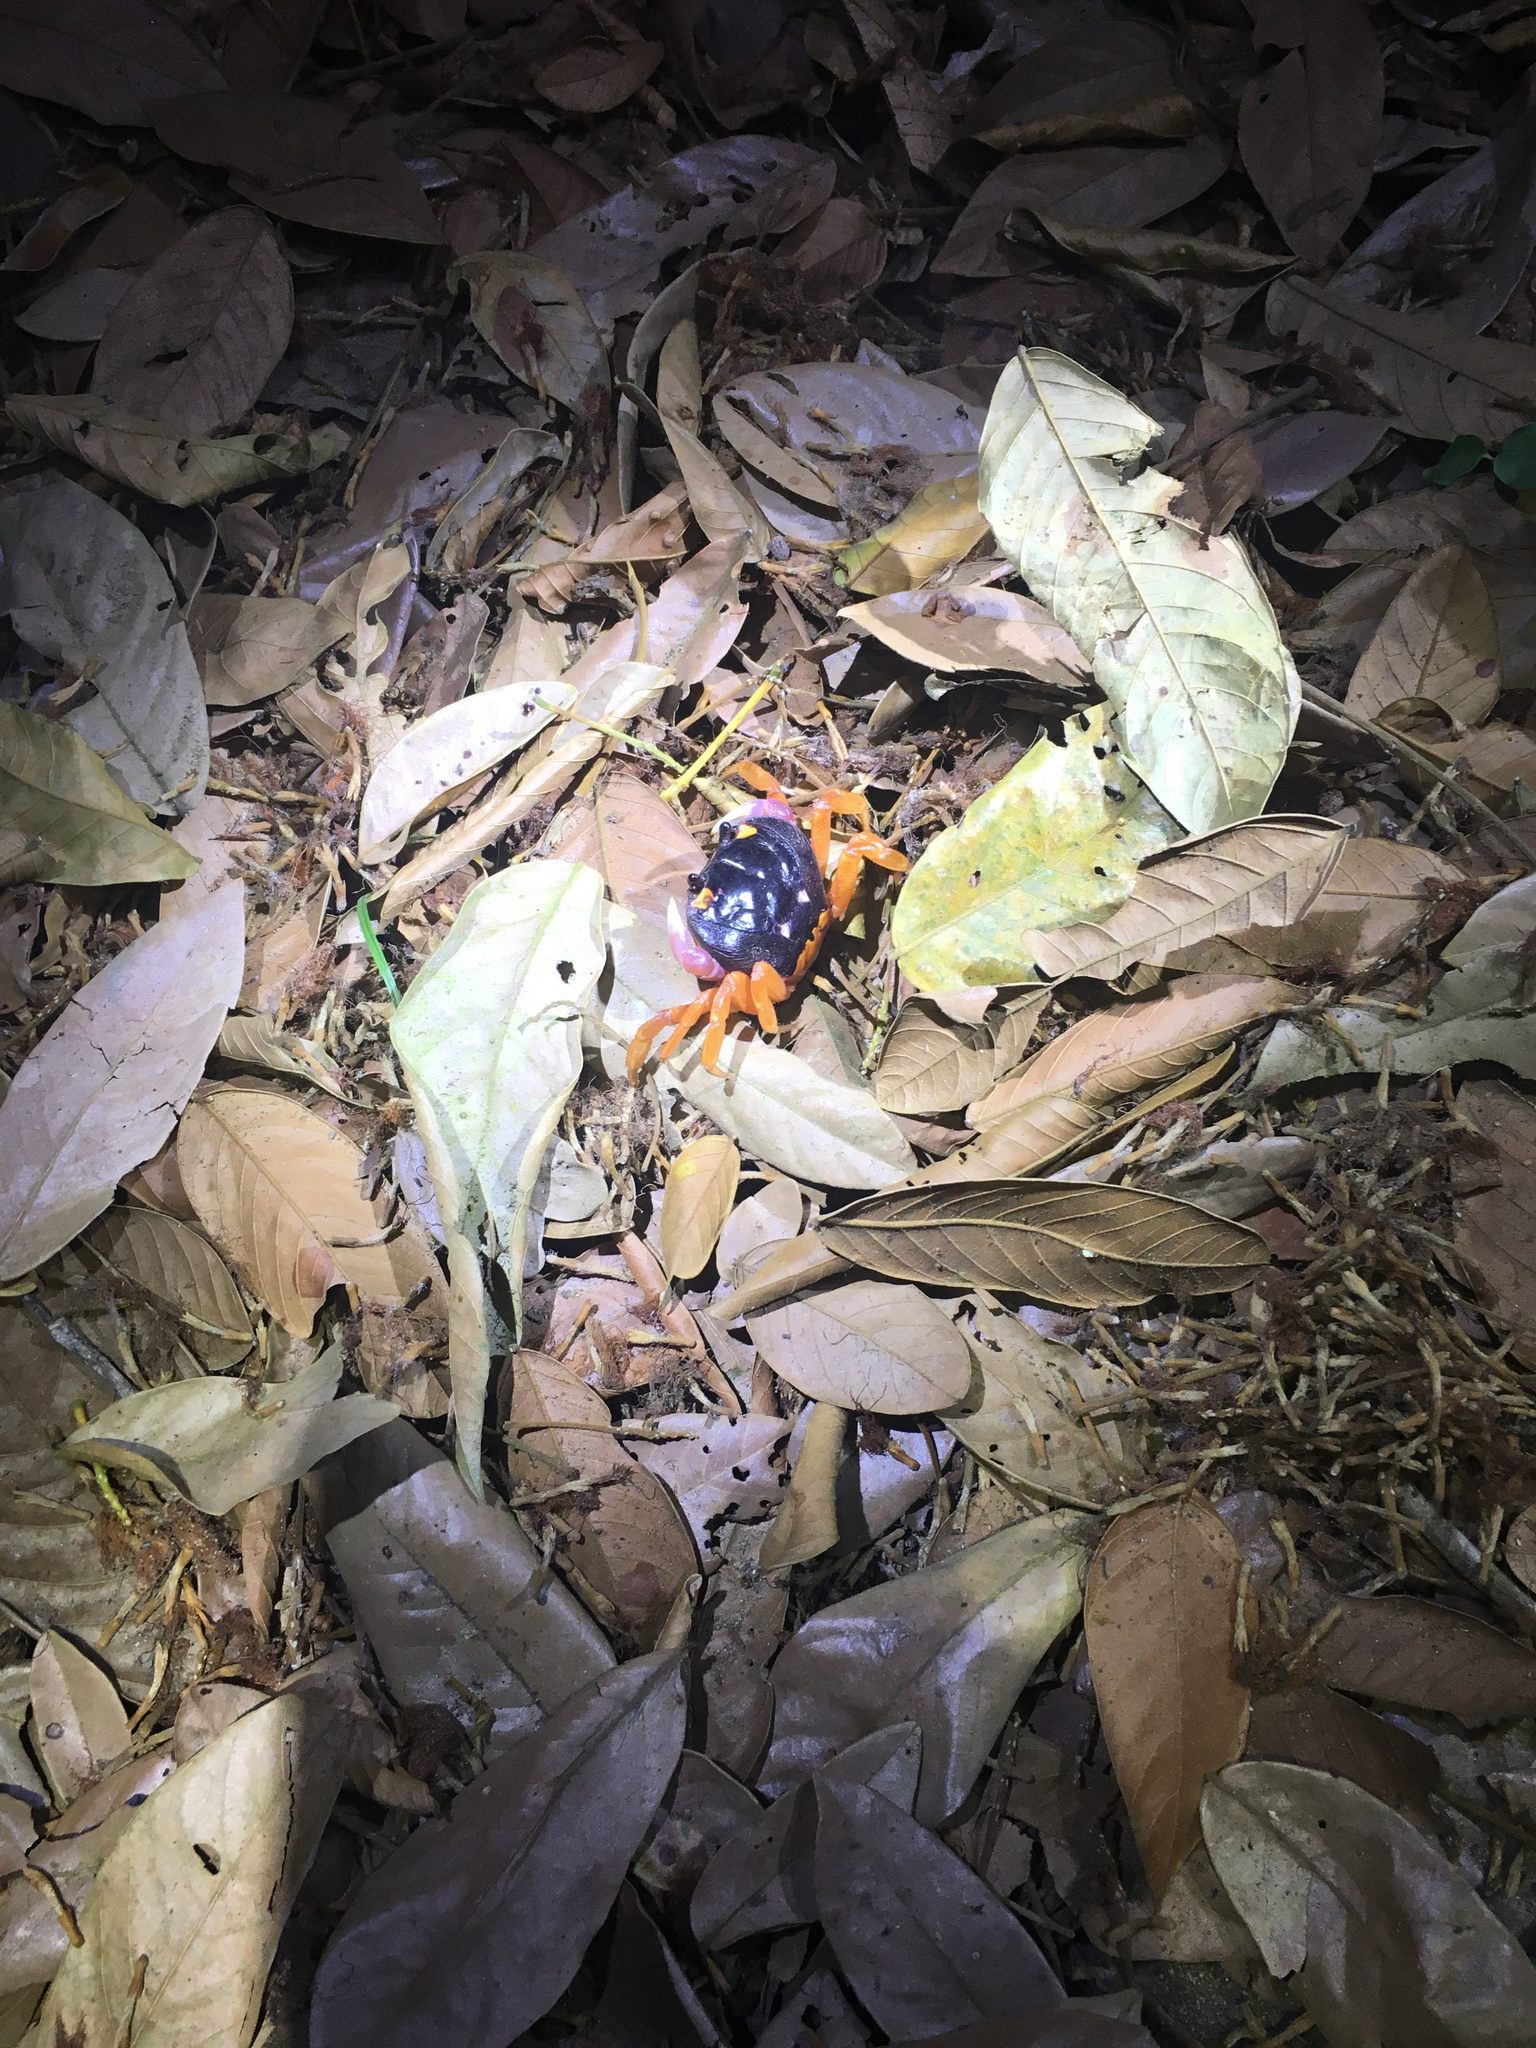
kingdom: Animalia
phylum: Arthropoda
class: Malacostraca
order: Decapoda
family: Gecarcinidae
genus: Gecarcinus
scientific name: Gecarcinus quadratus
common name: Halloween crab
